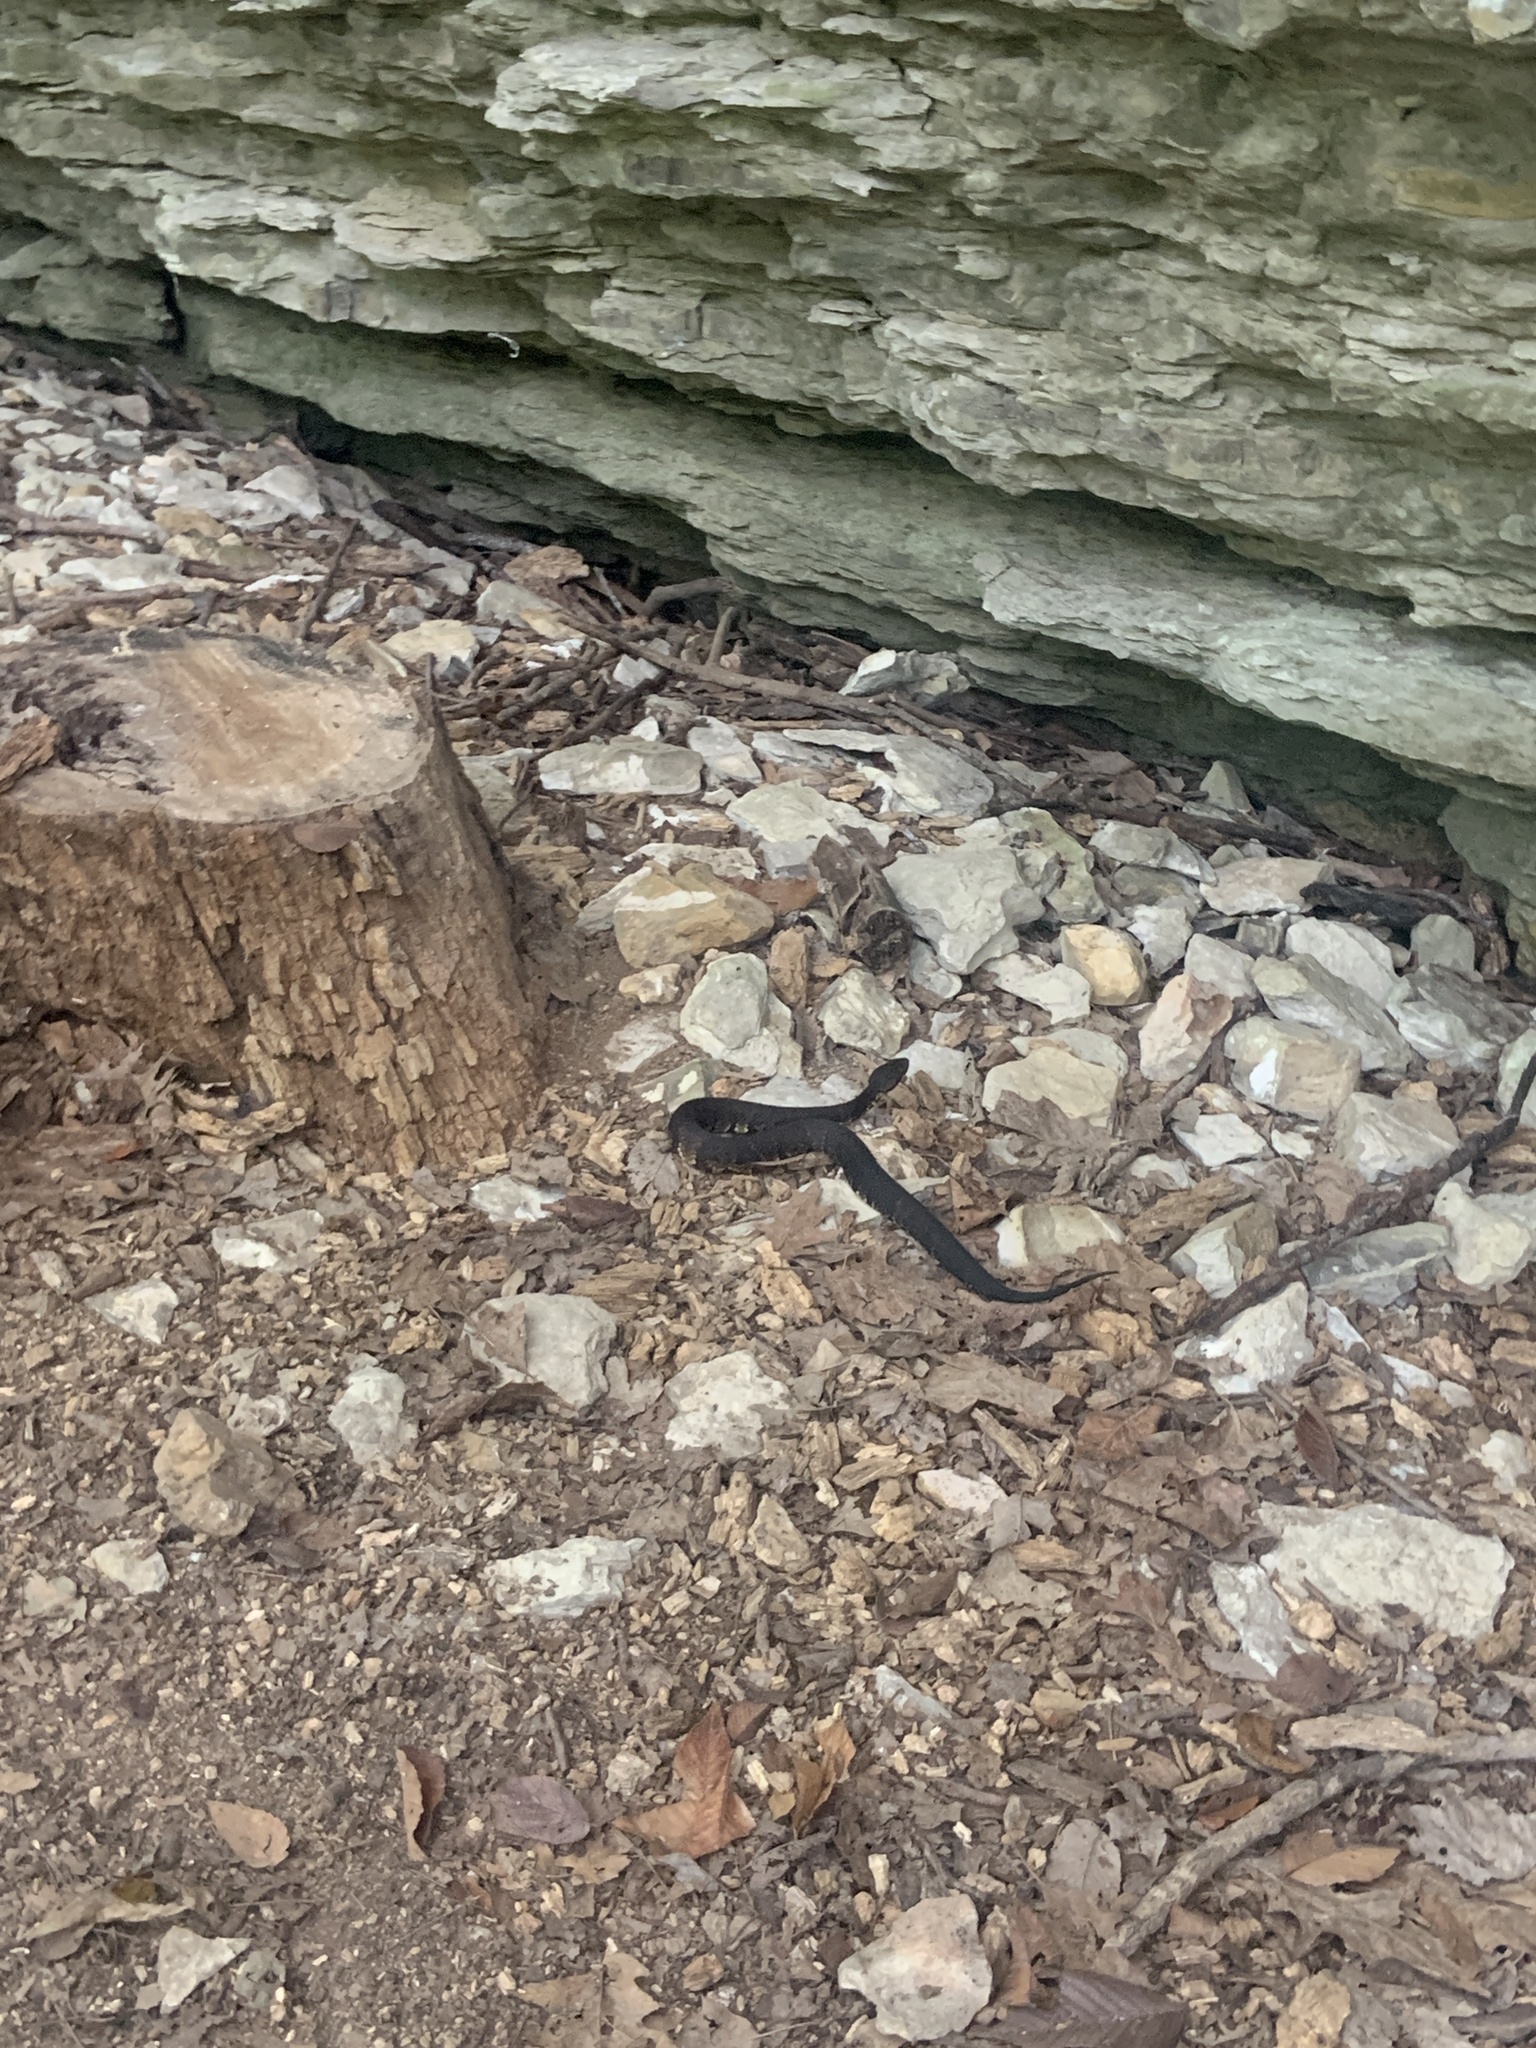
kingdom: Animalia
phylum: Chordata
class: Squamata
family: Viperidae
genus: Agkistrodon
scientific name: Agkistrodon piscivorus
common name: Cottonmouth
